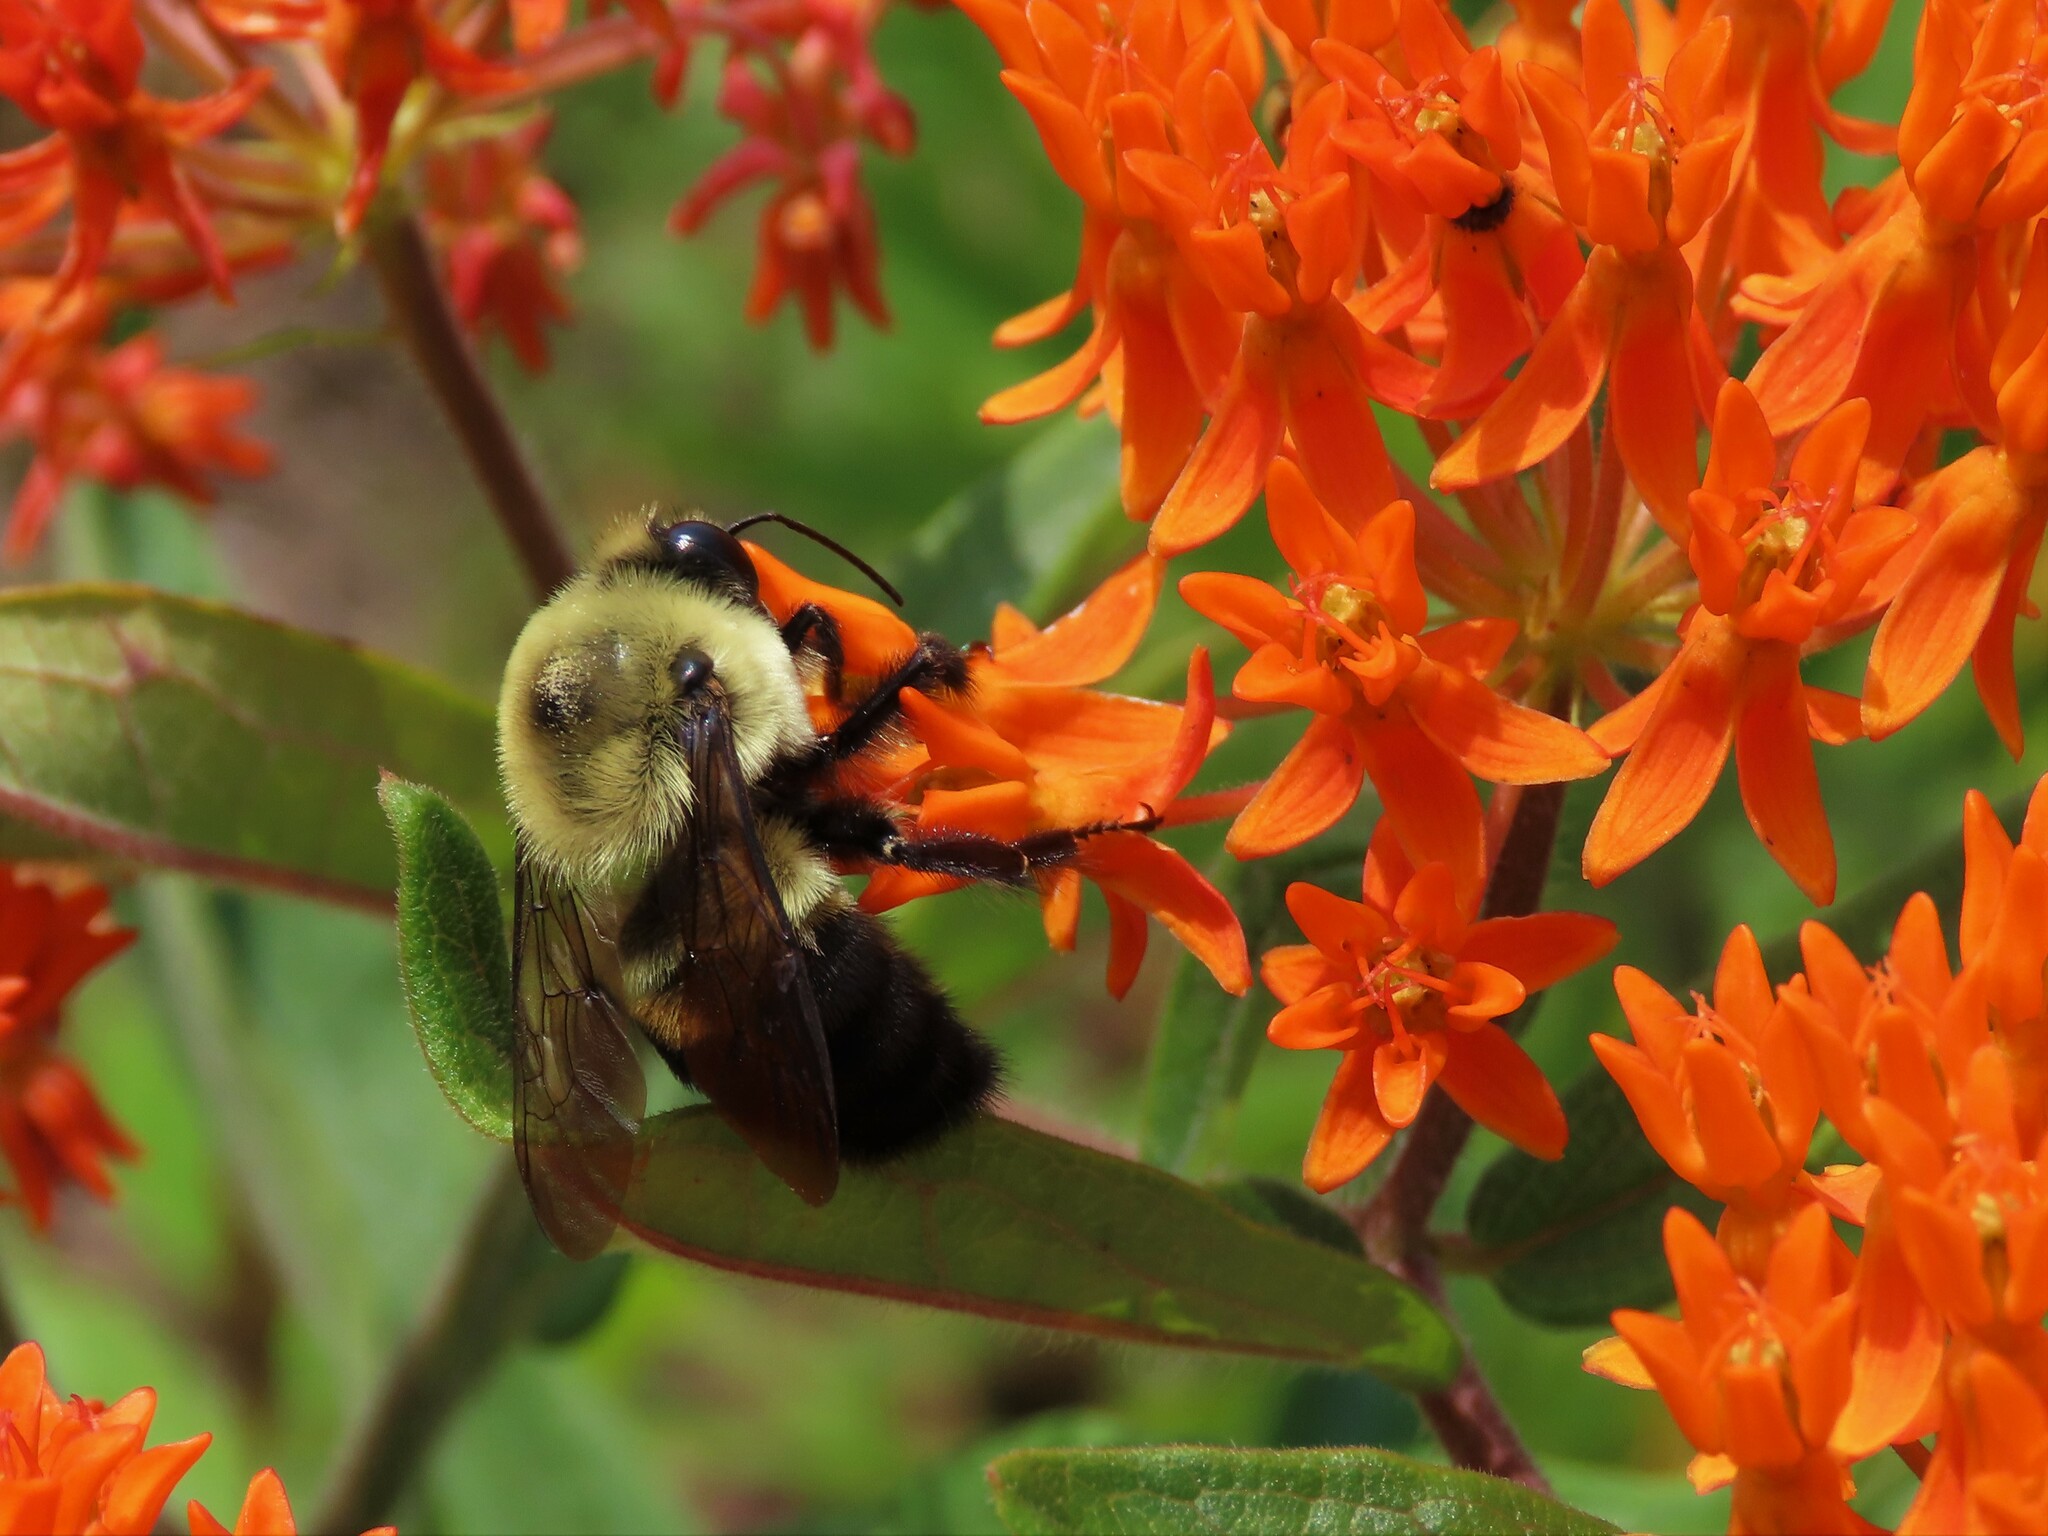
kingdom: Animalia
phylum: Arthropoda
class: Insecta
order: Hymenoptera
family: Apidae
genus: Bombus
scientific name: Bombus griseocollis
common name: Brown-belted bumble bee
